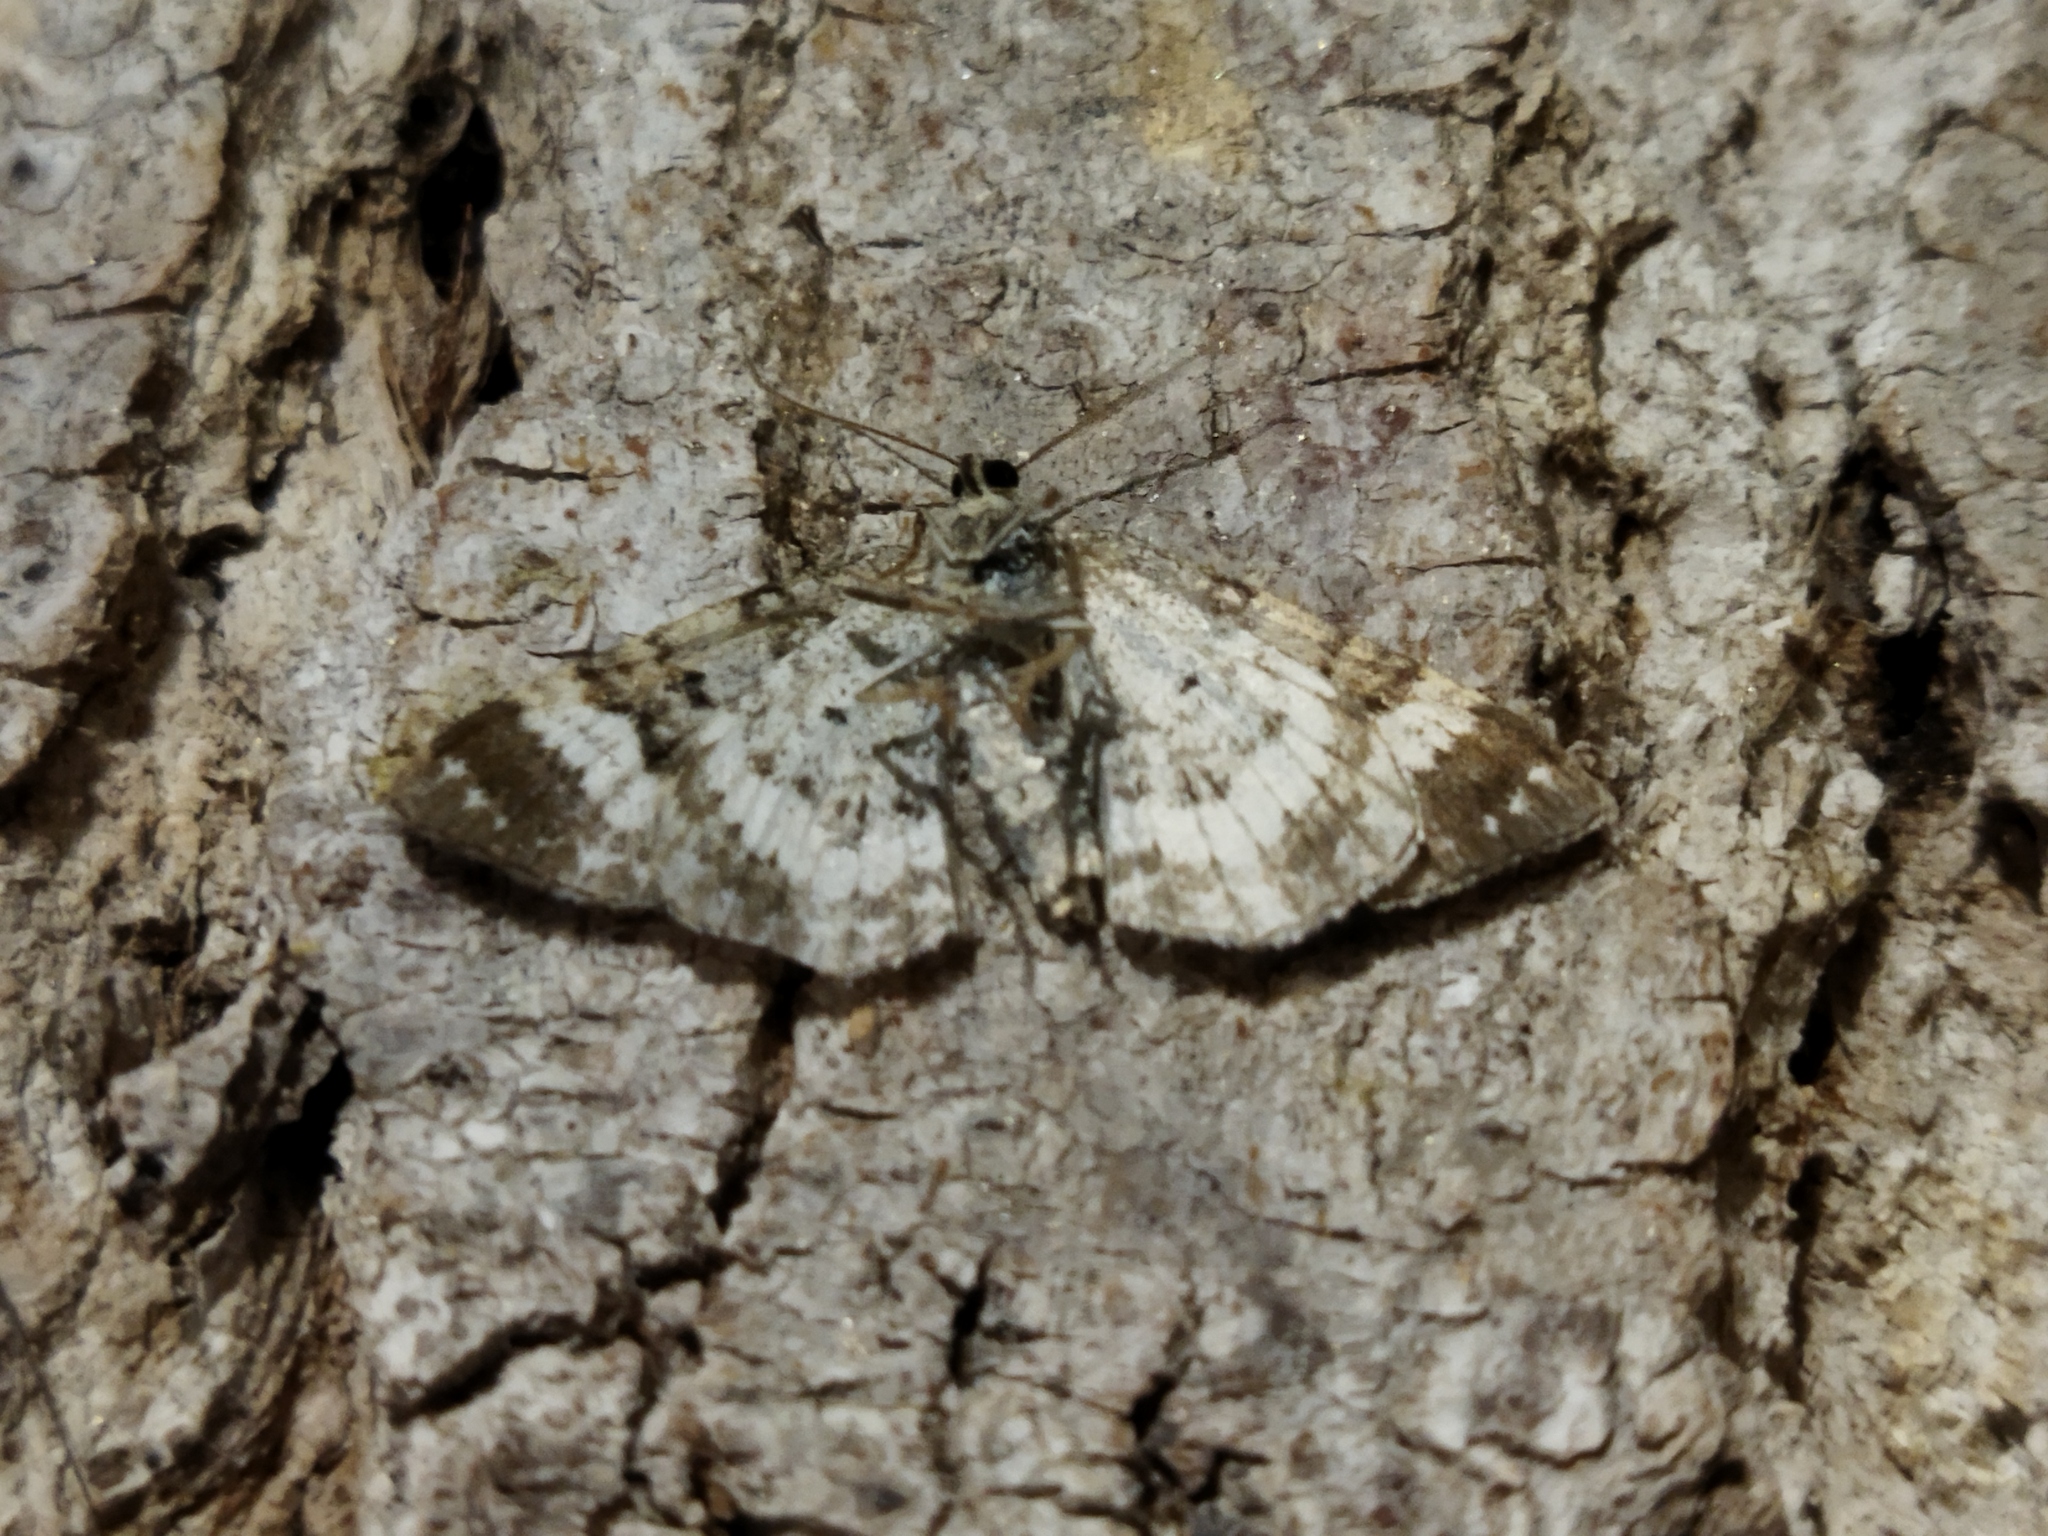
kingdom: Animalia
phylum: Arthropoda
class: Insecta
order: Lepidoptera
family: Geometridae
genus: Epirrhoe
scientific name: Epirrhoe alternata
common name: Common carpet
